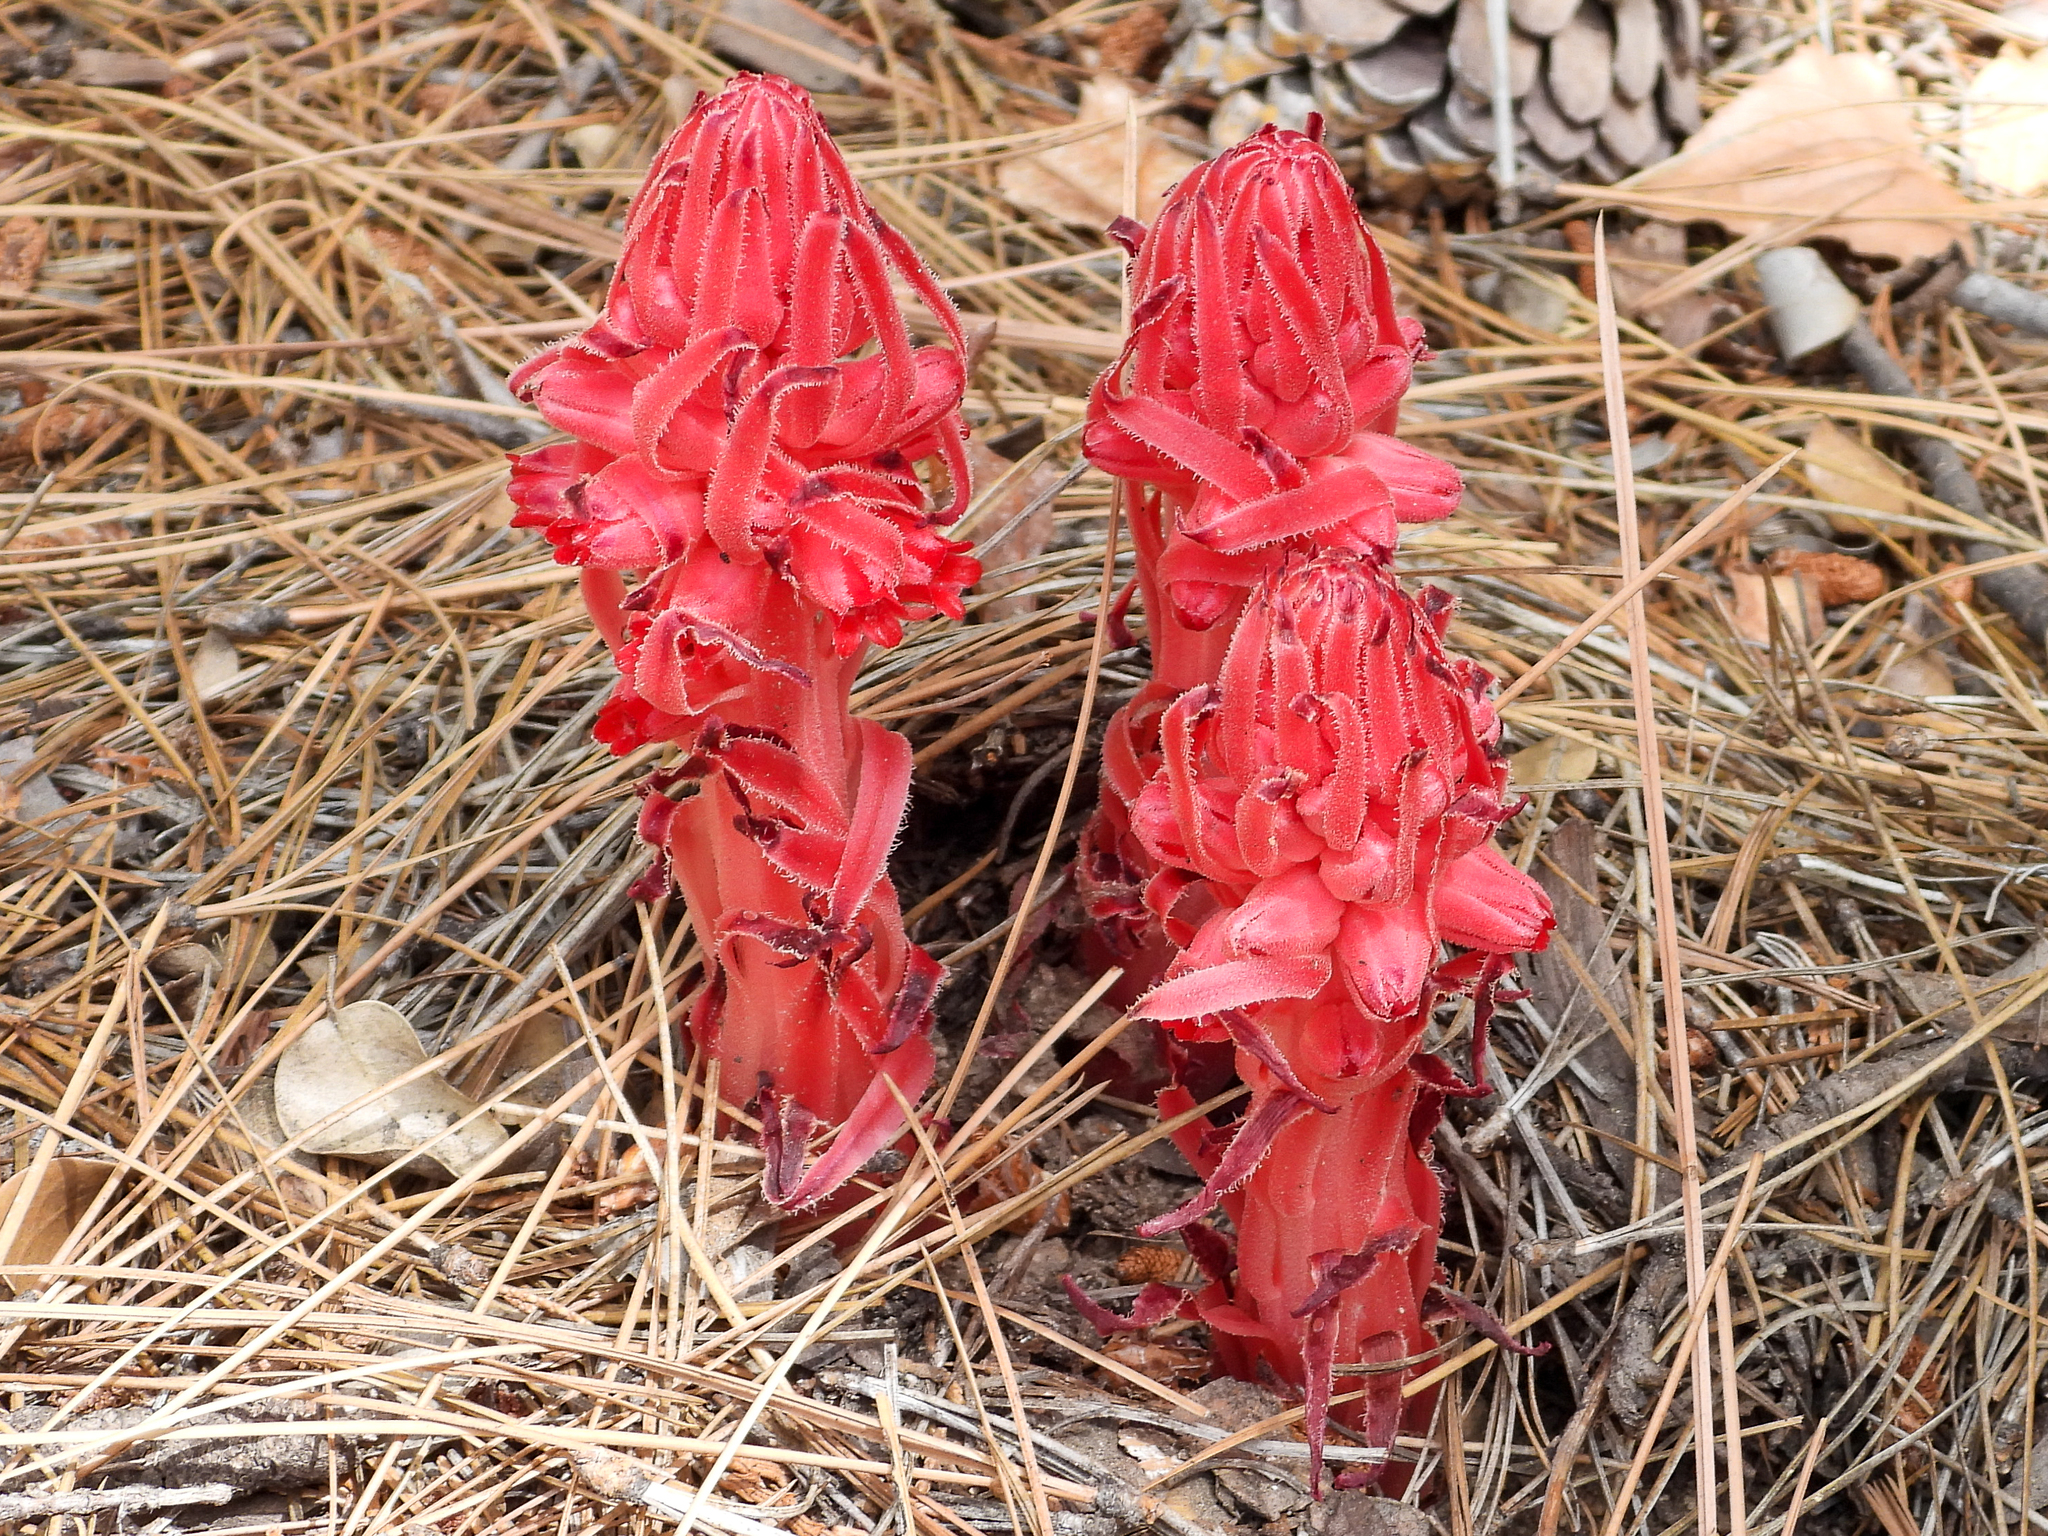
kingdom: Plantae
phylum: Tracheophyta
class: Magnoliopsida
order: Ericales
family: Ericaceae
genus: Sarcodes
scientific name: Sarcodes sanguinea
